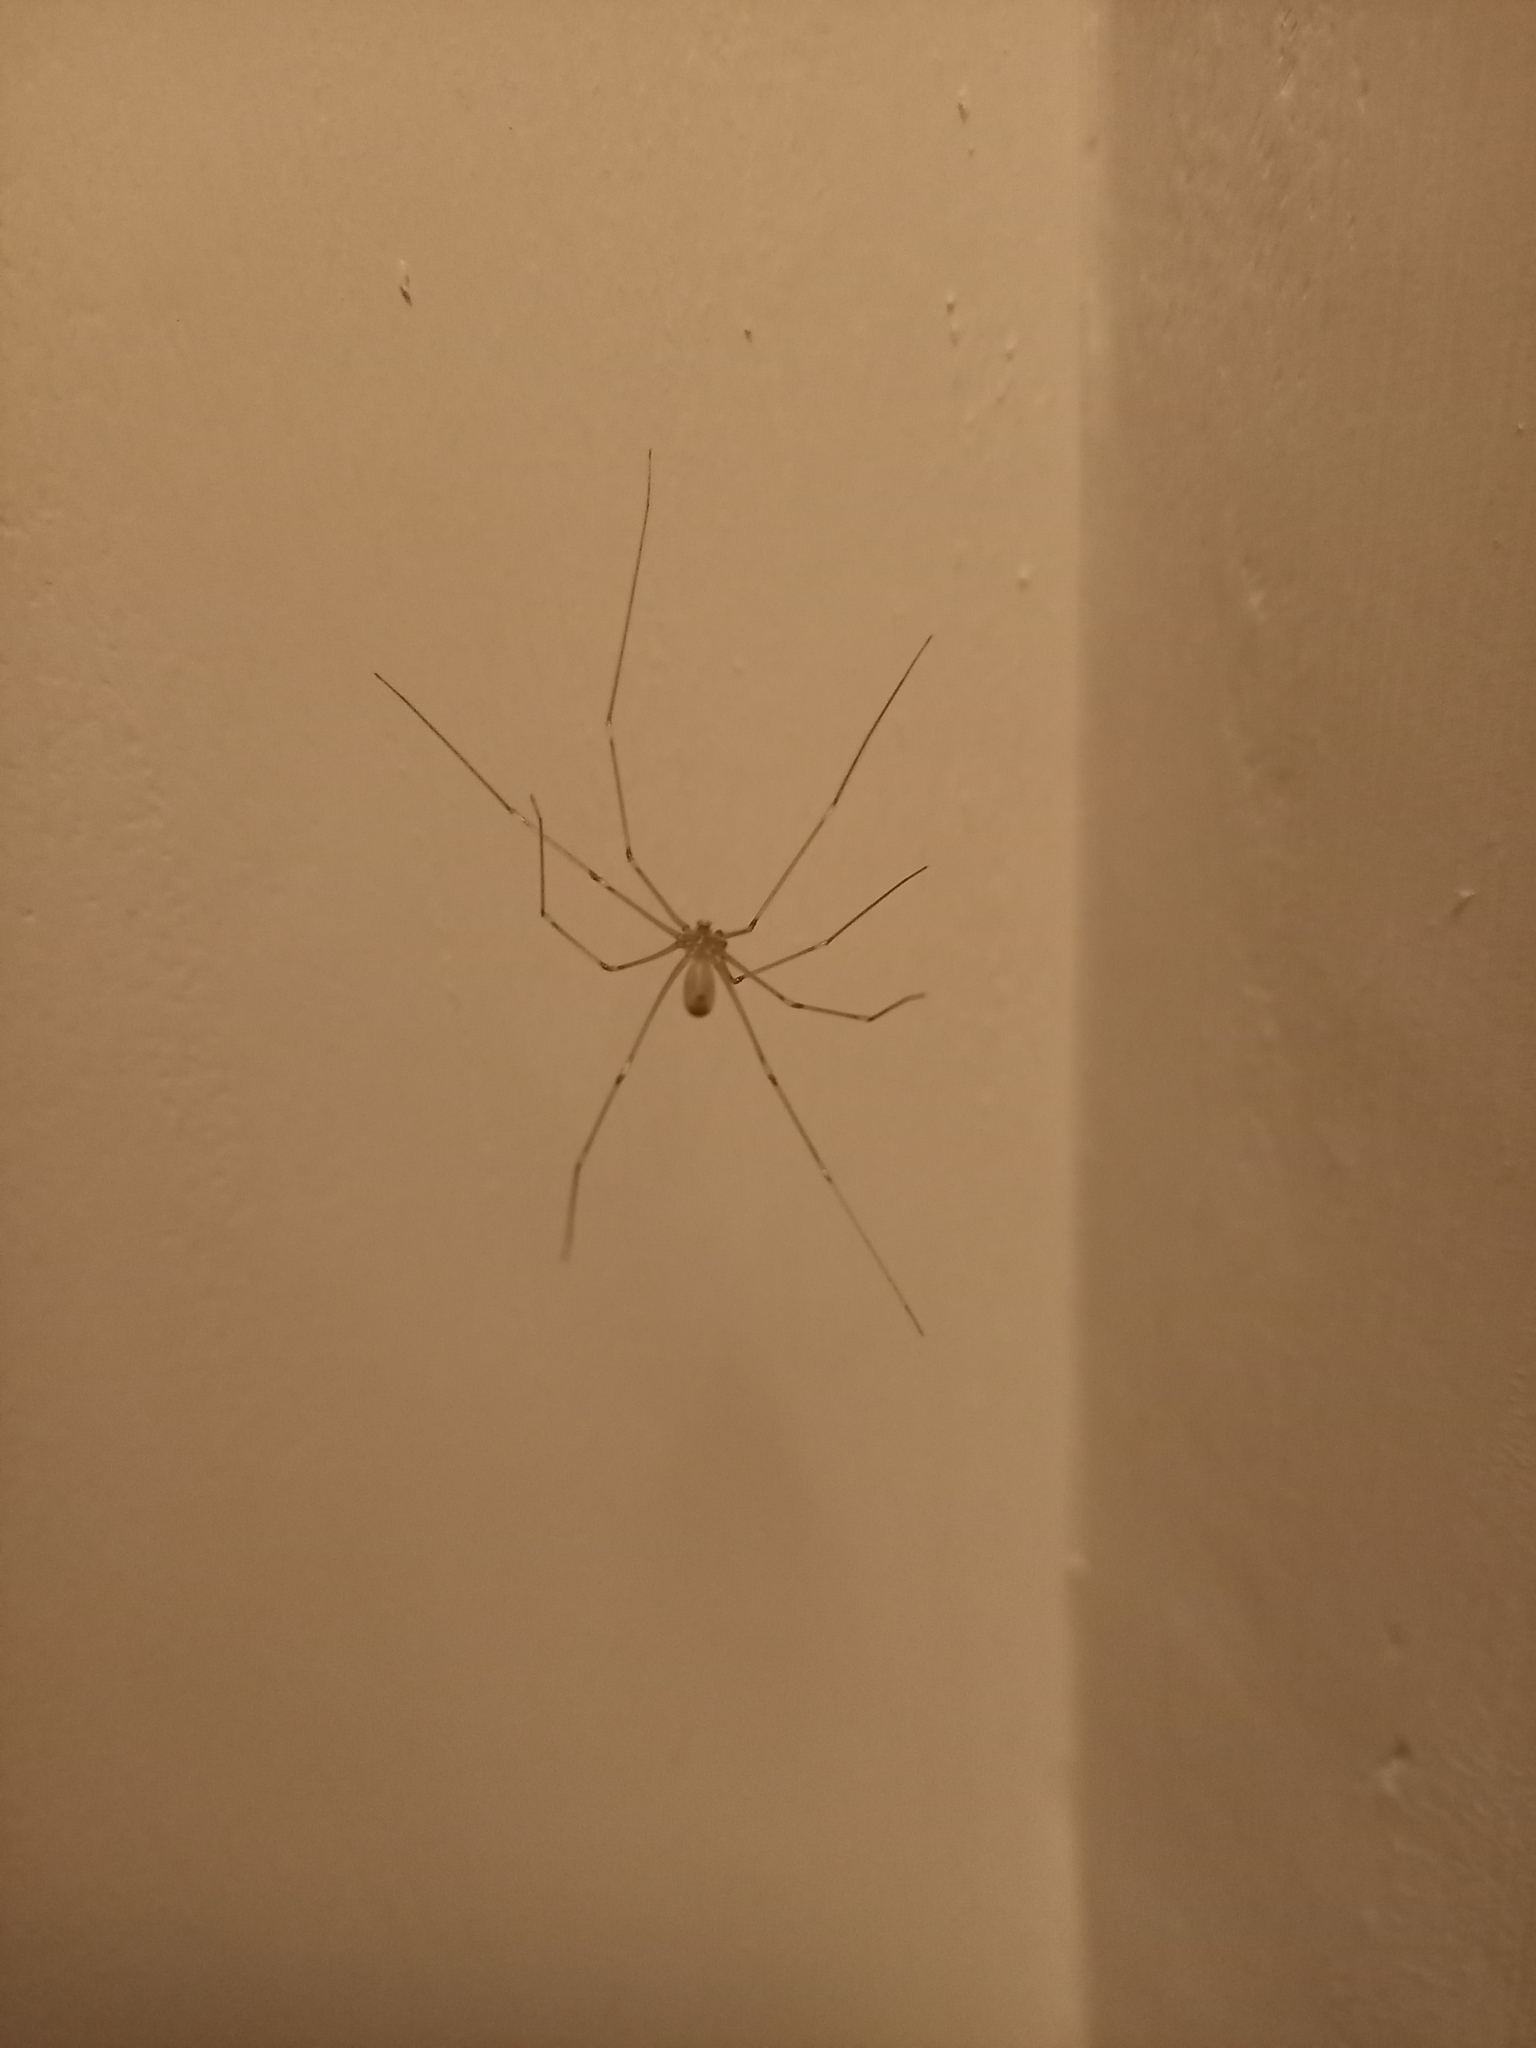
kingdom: Animalia
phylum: Arthropoda
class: Arachnida
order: Araneae
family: Pholcidae
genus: Pholcus
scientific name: Pholcus phalangioides
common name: Longbodied cellar spider
